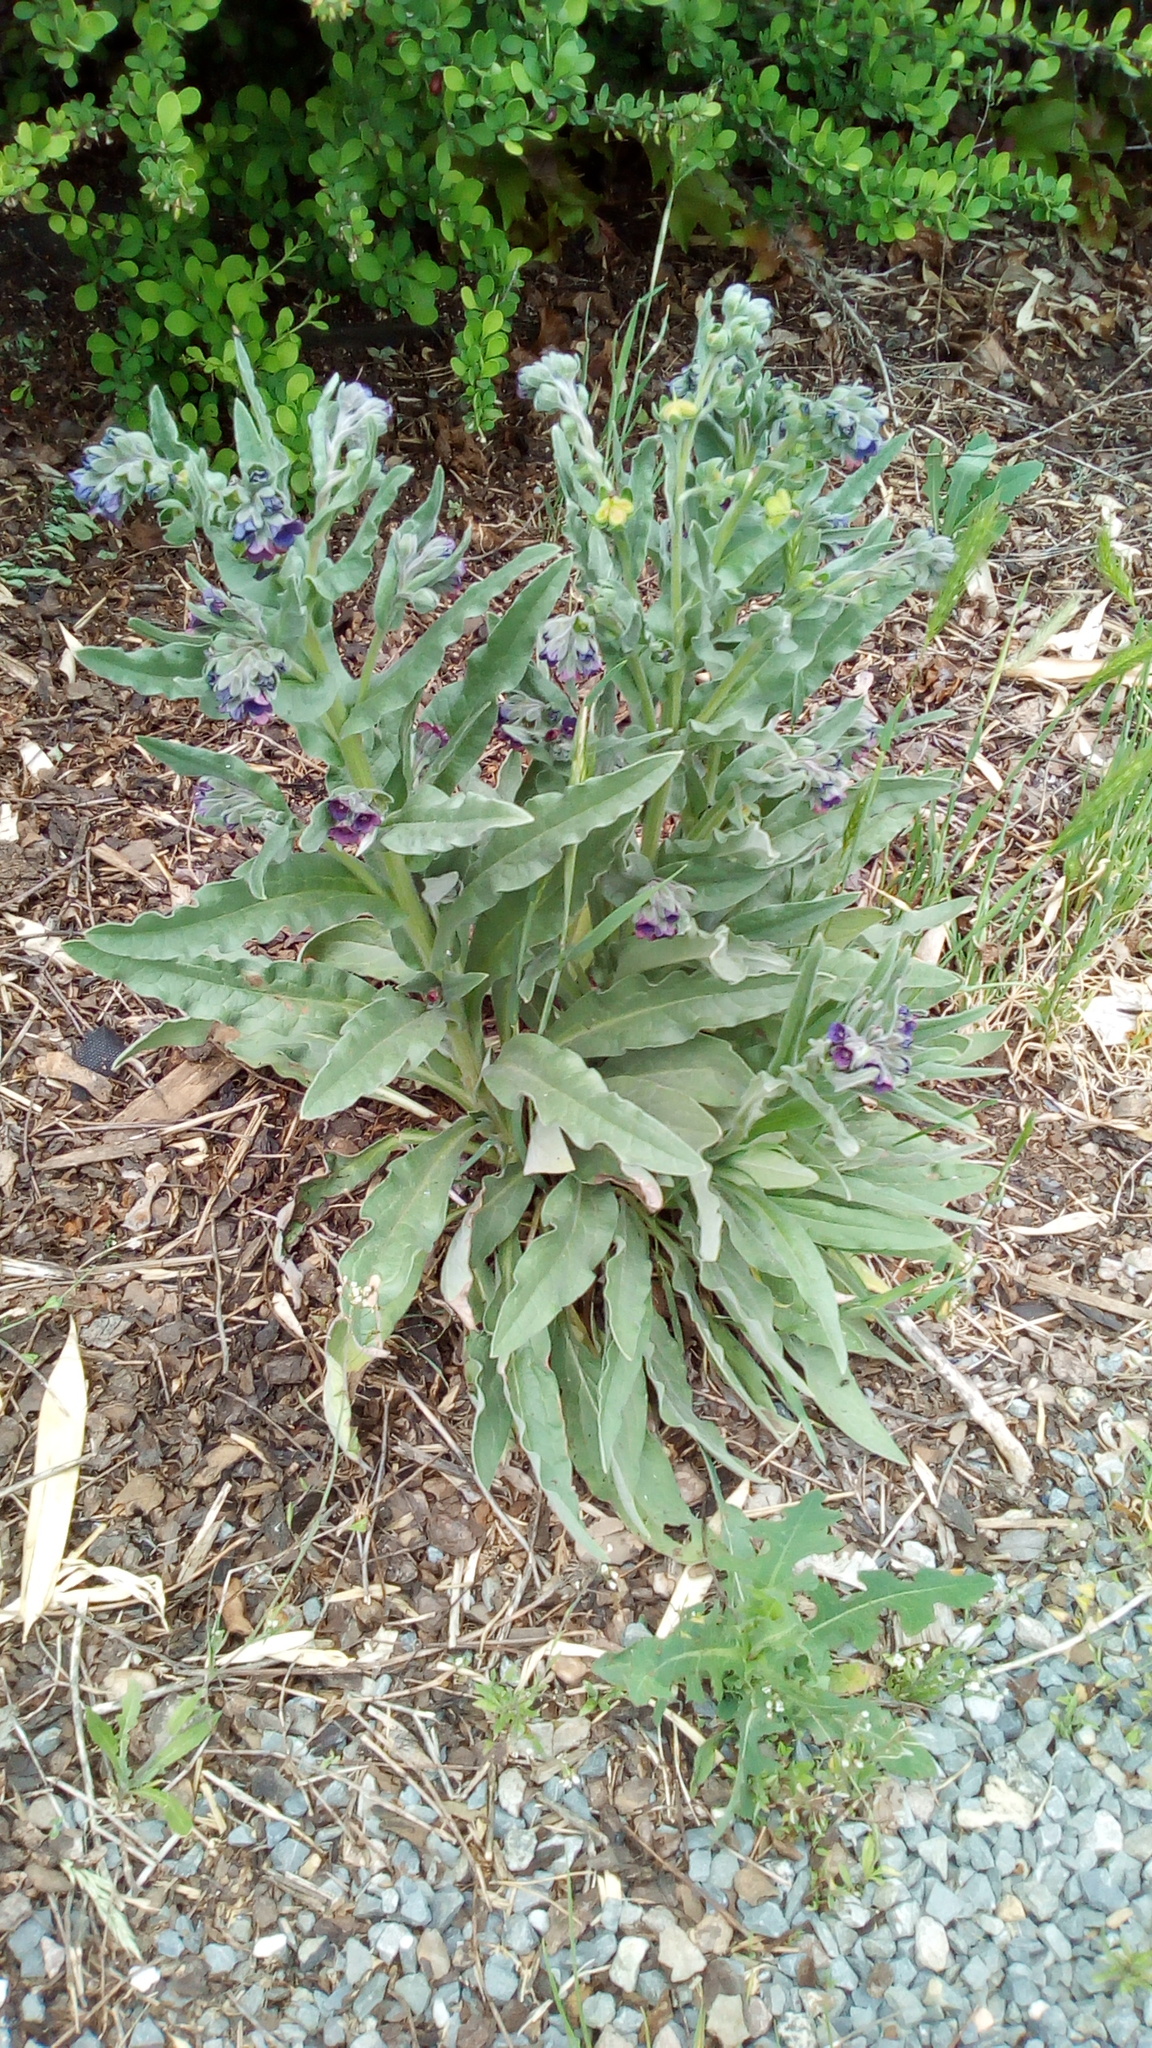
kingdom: Plantae
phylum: Tracheophyta
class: Magnoliopsida
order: Boraginales
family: Boraginaceae
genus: Cynoglossum
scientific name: Cynoglossum officinale
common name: Hound's-tongue
